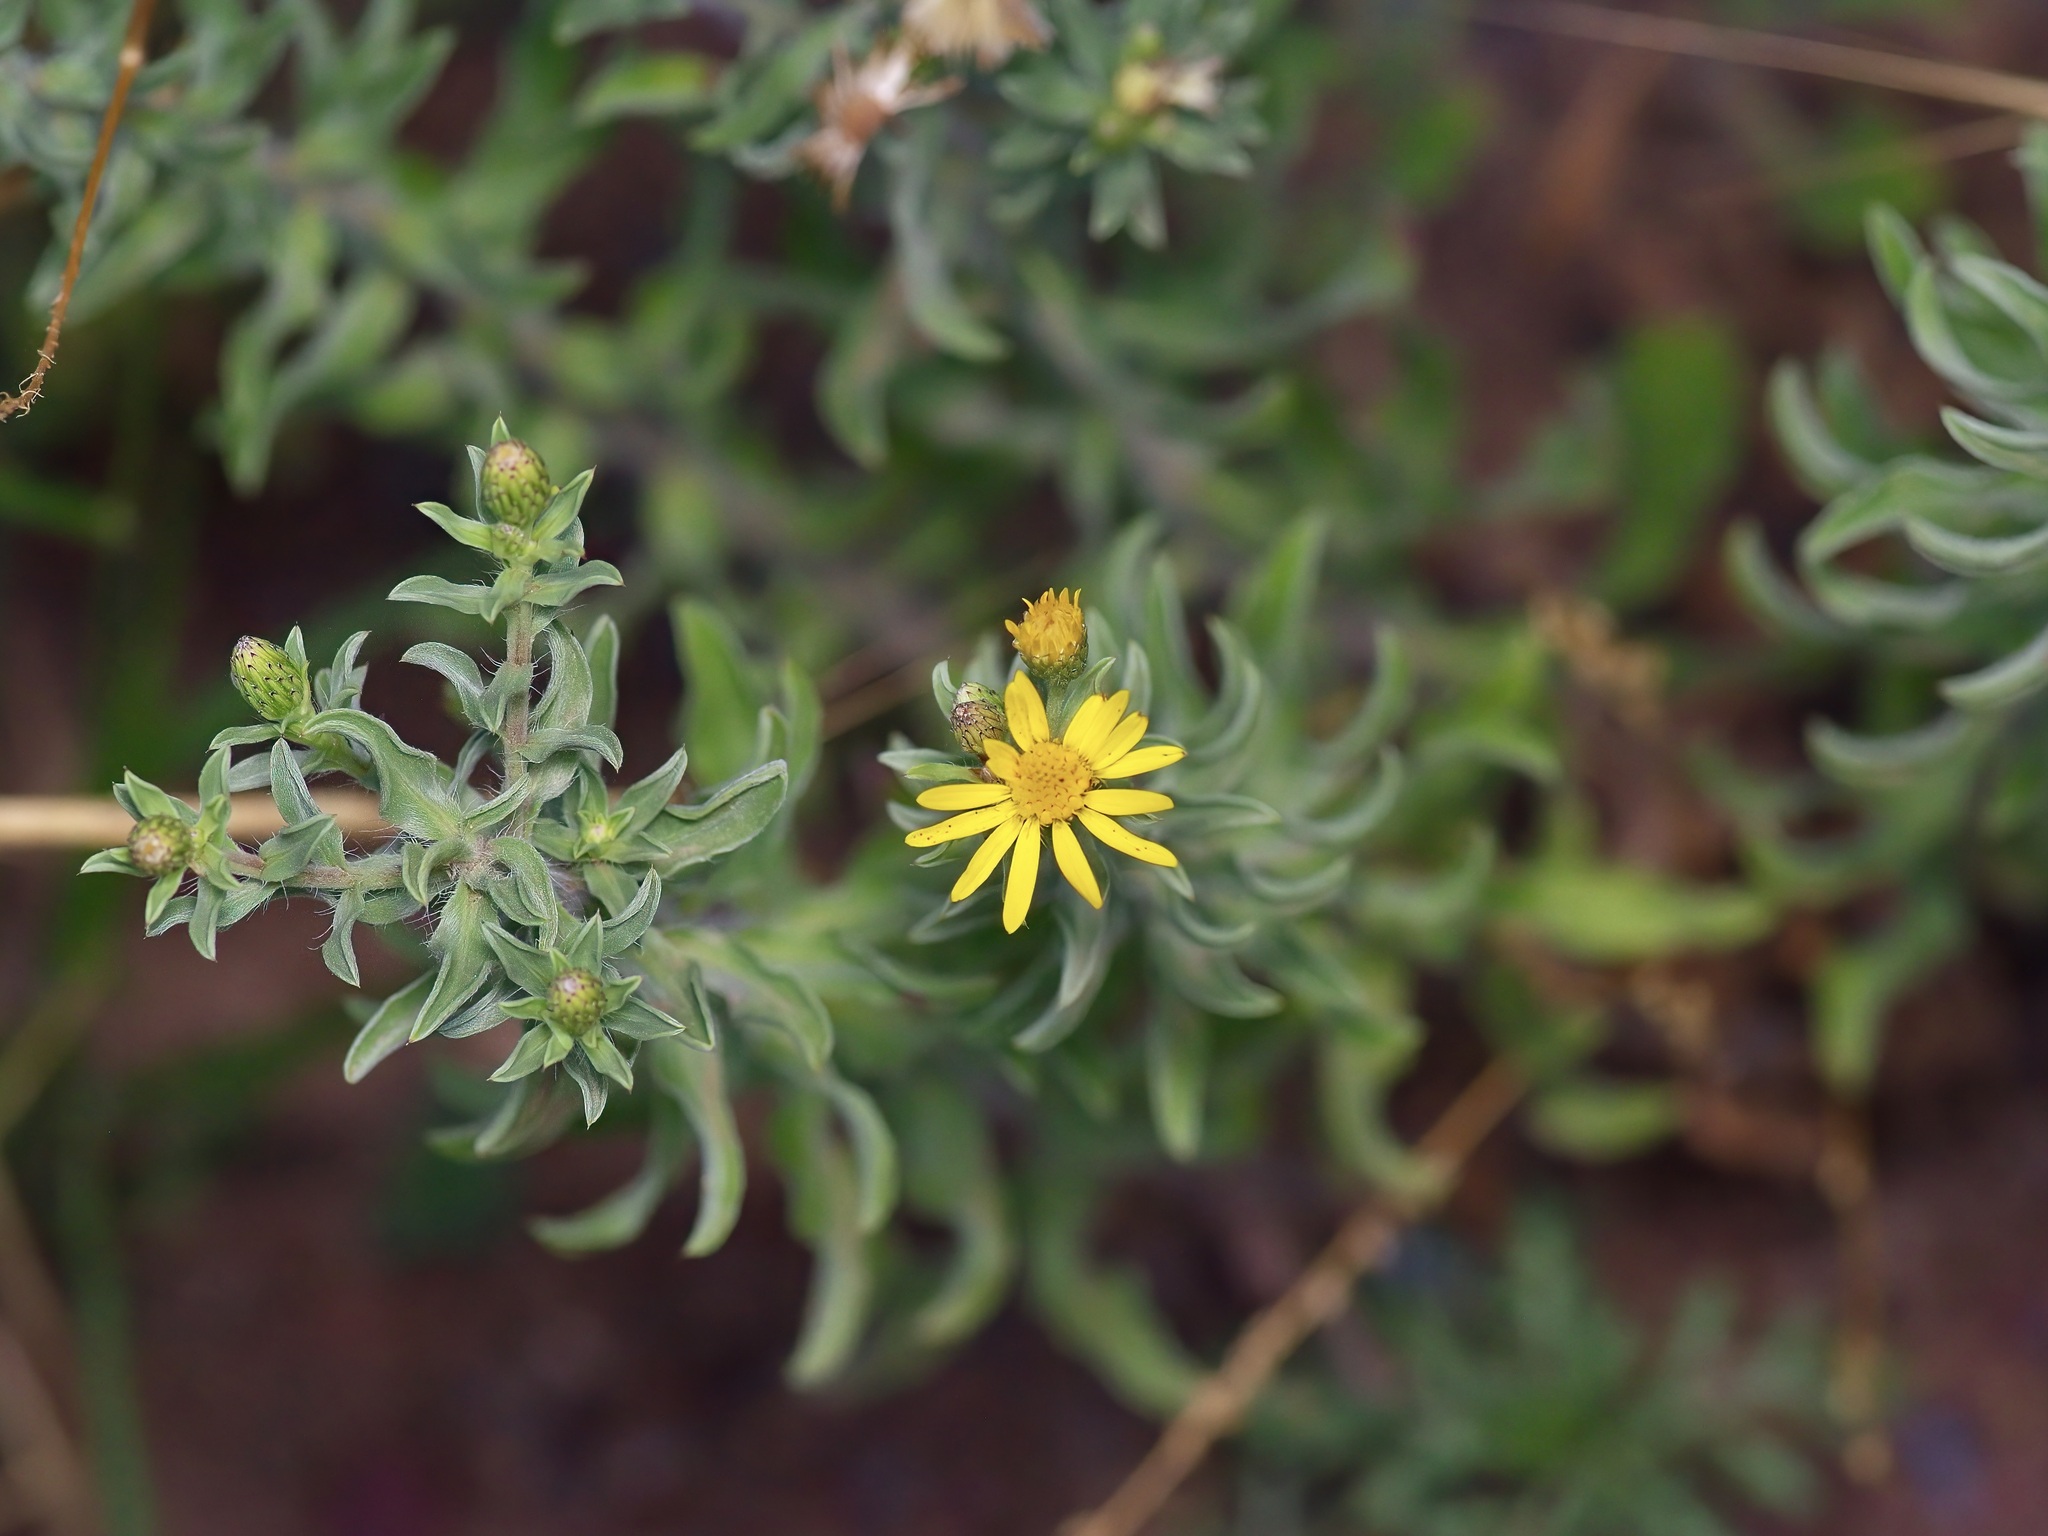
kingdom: Plantae
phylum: Tracheophyta
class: Magnoliopsida
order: Asterales
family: Asteraceae
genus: Heterotheca
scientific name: Heterotheca zionensis
